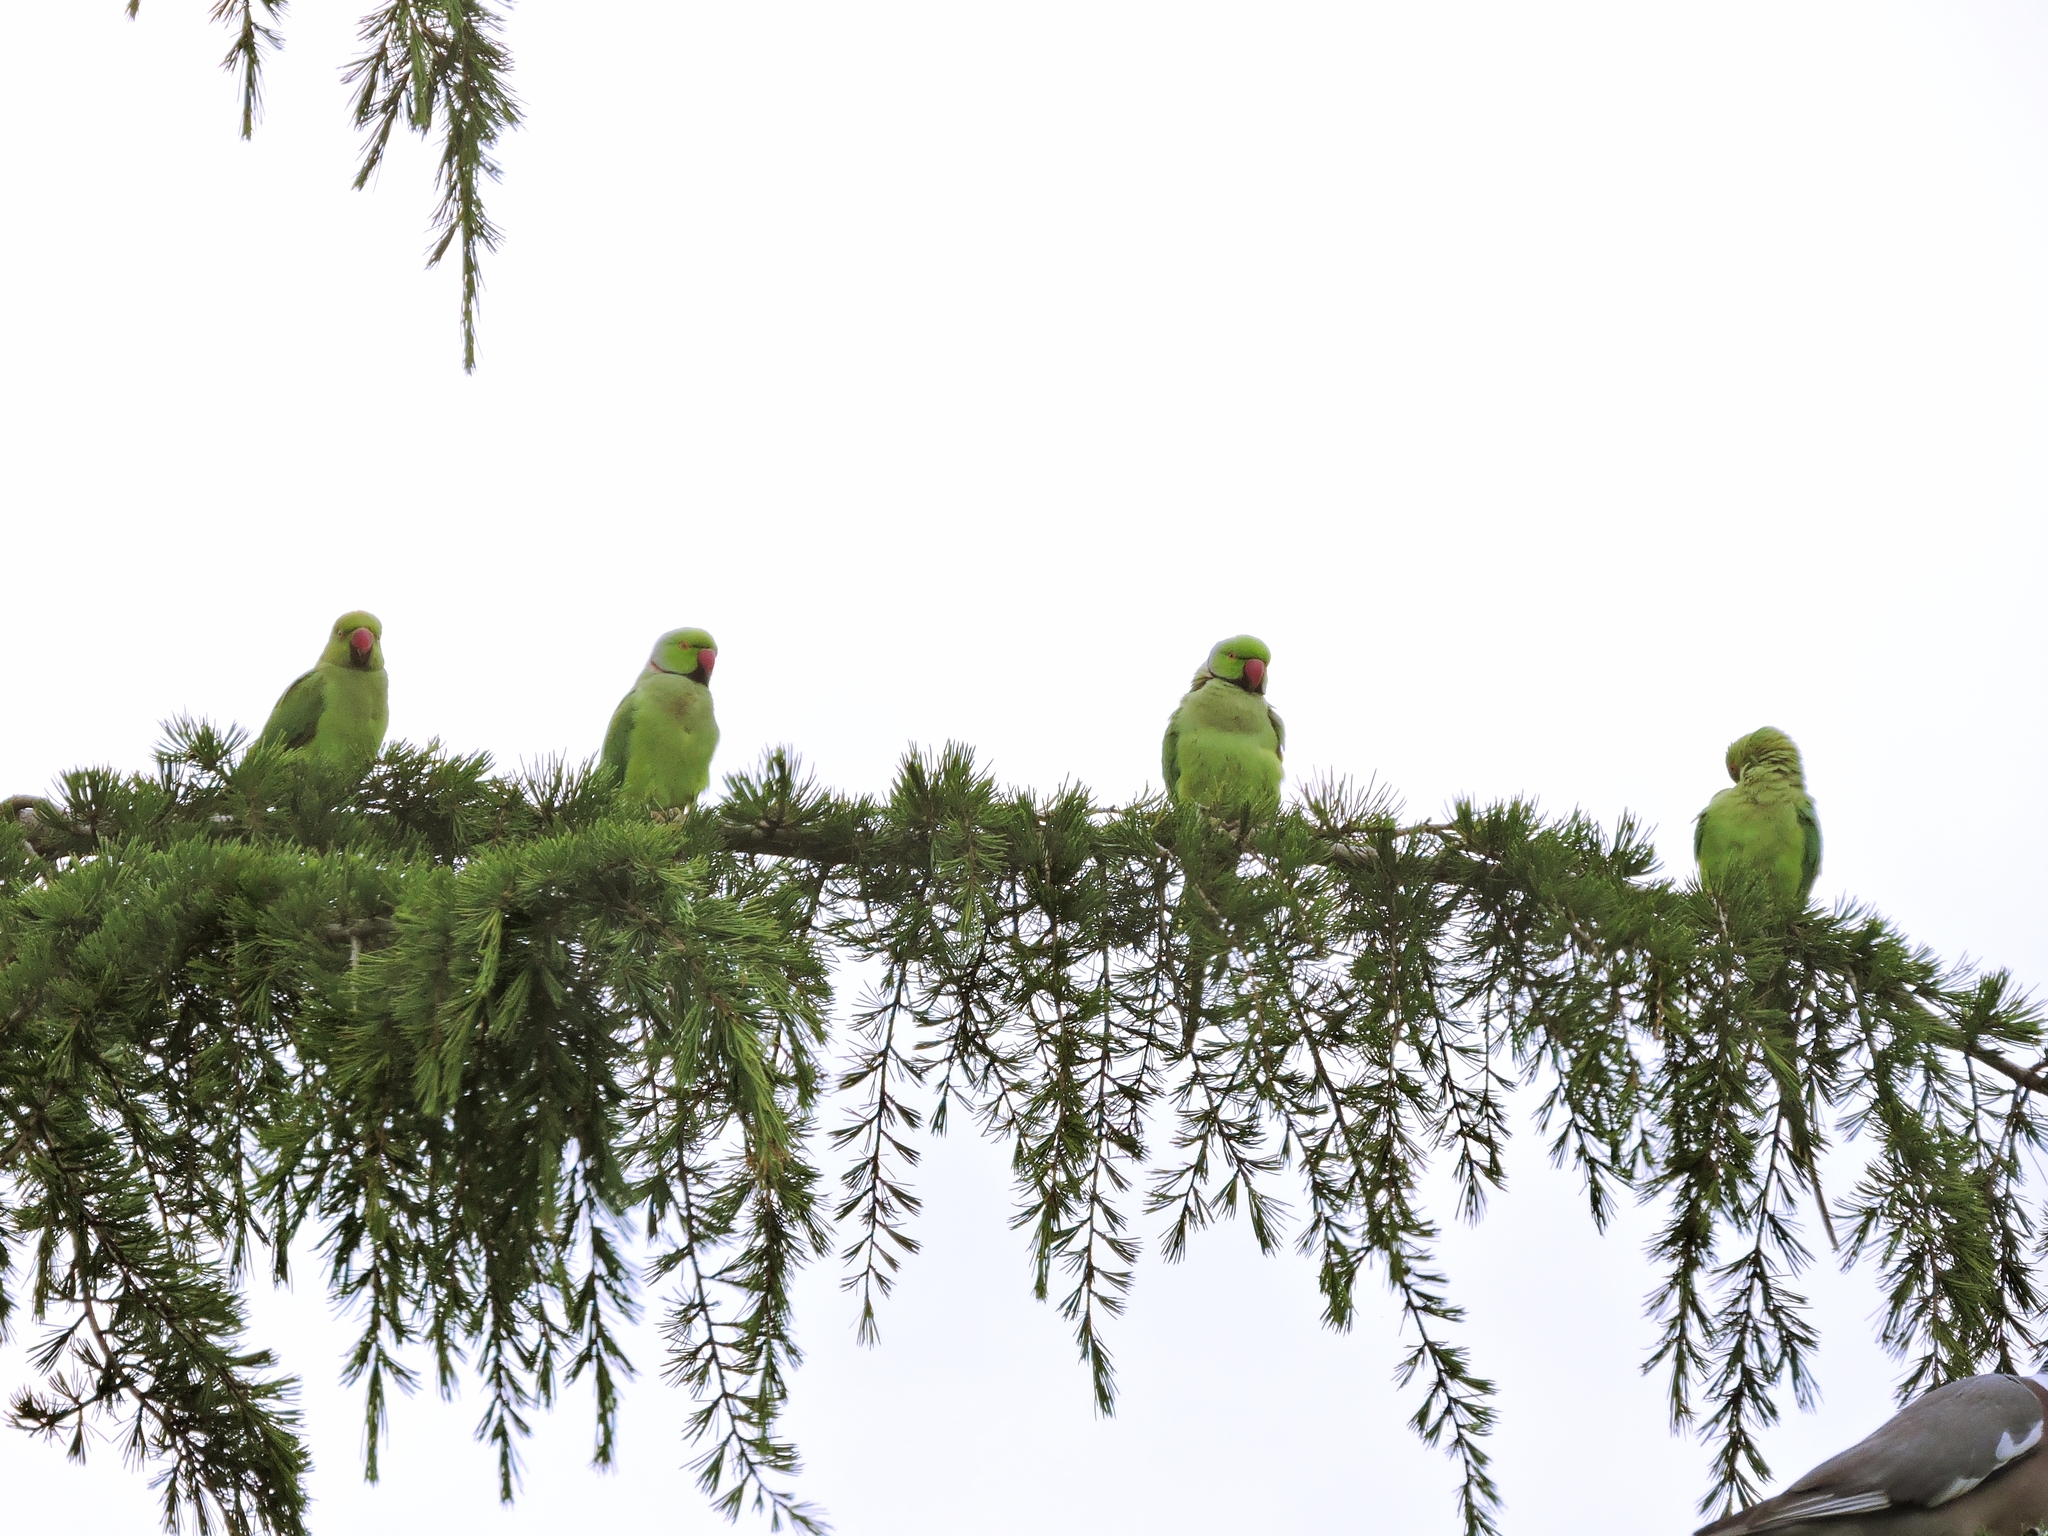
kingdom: Animalia
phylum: Chordata
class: Aves
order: Psittaciformes
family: Psittacidae
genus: Psittacula
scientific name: Psittacula krameri
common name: Rose-ringed parakeet
